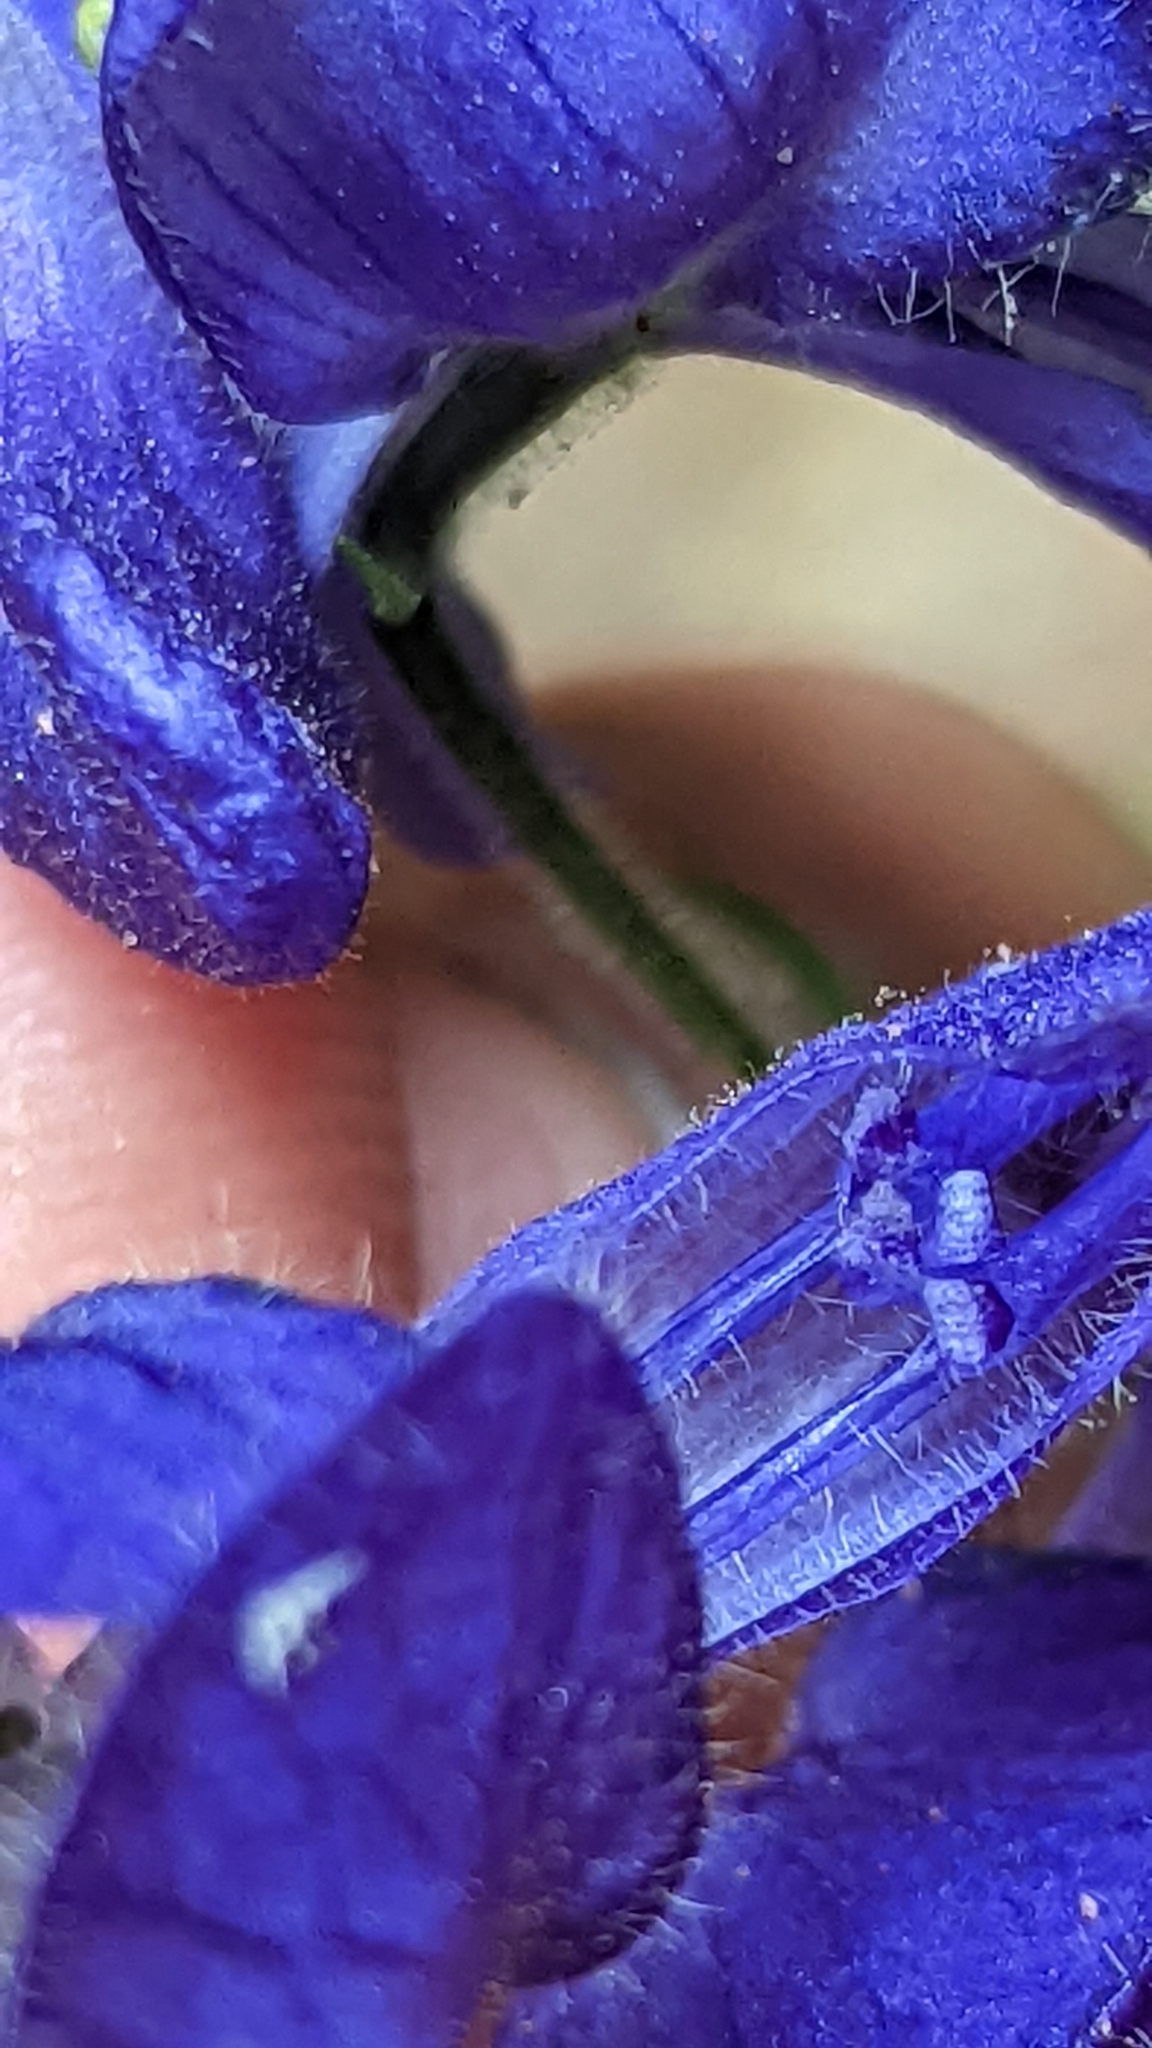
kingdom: Plantae
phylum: Tracheophyta
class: Magnoliopsida
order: Ranunculales
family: Ranunculaceae
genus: Aconitum
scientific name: Aconitum columbianum
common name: Columbia aconite
